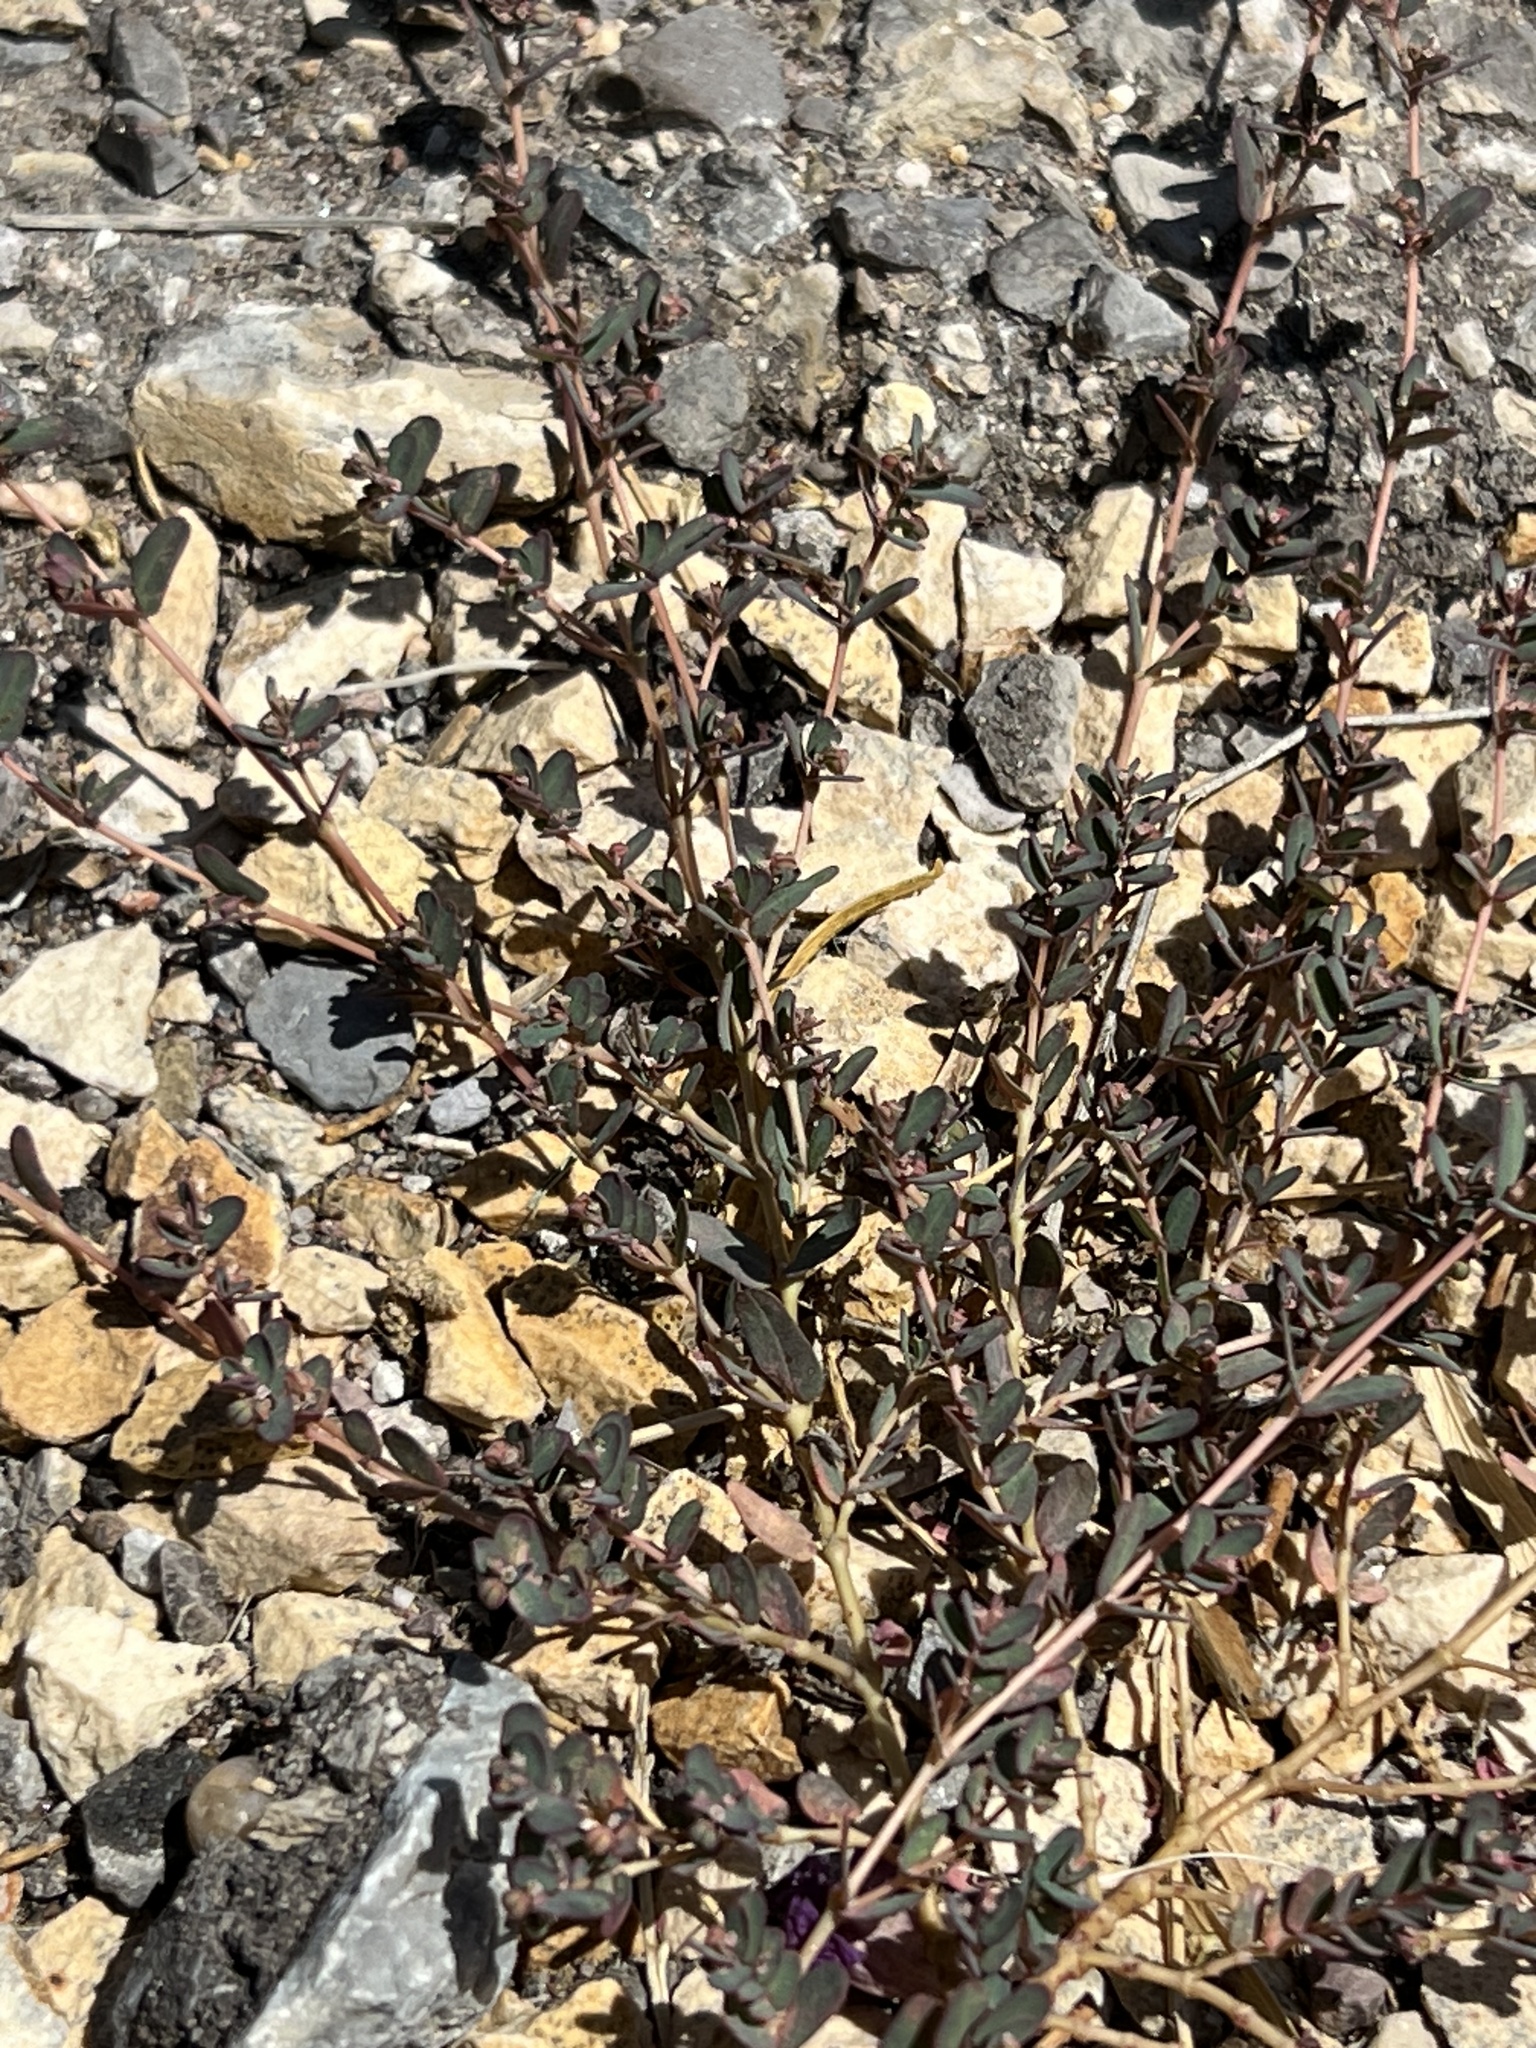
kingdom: Plantae
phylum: Tracheophyta
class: Magnoliopsida
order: Malpighiales
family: Euphorbiaceae
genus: Euphorbia
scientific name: Euphorbia serpillifolia
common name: Thyme-leaf spurge
